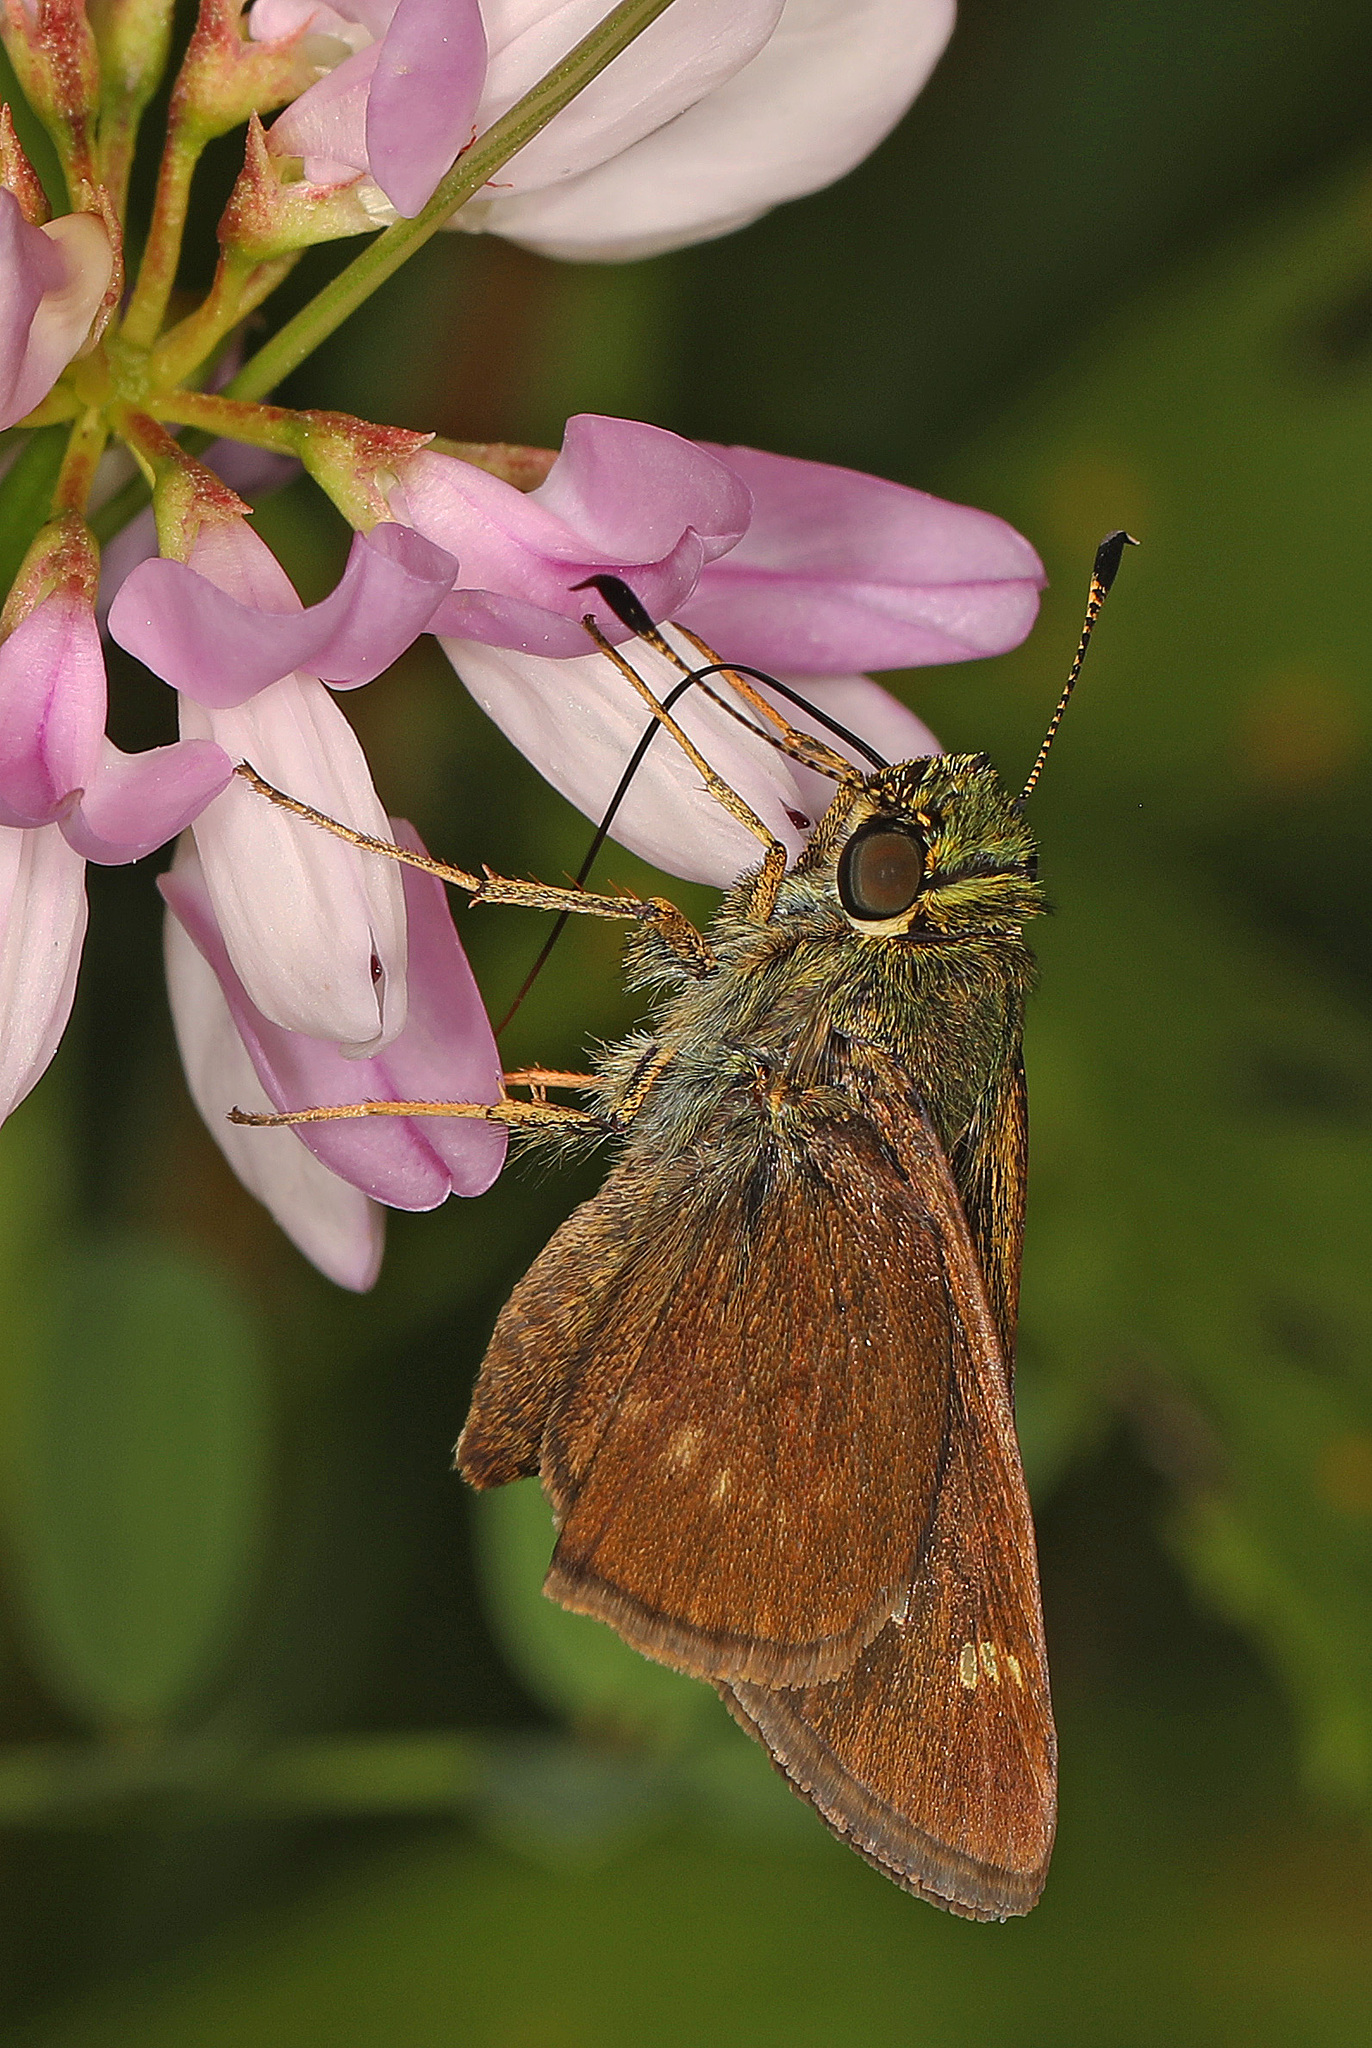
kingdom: Animalia
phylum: Arthropoda
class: Insecta
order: Lepidoptera
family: Hesperiidae
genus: Vernia
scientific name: Vernia verna
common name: Little glassywing
